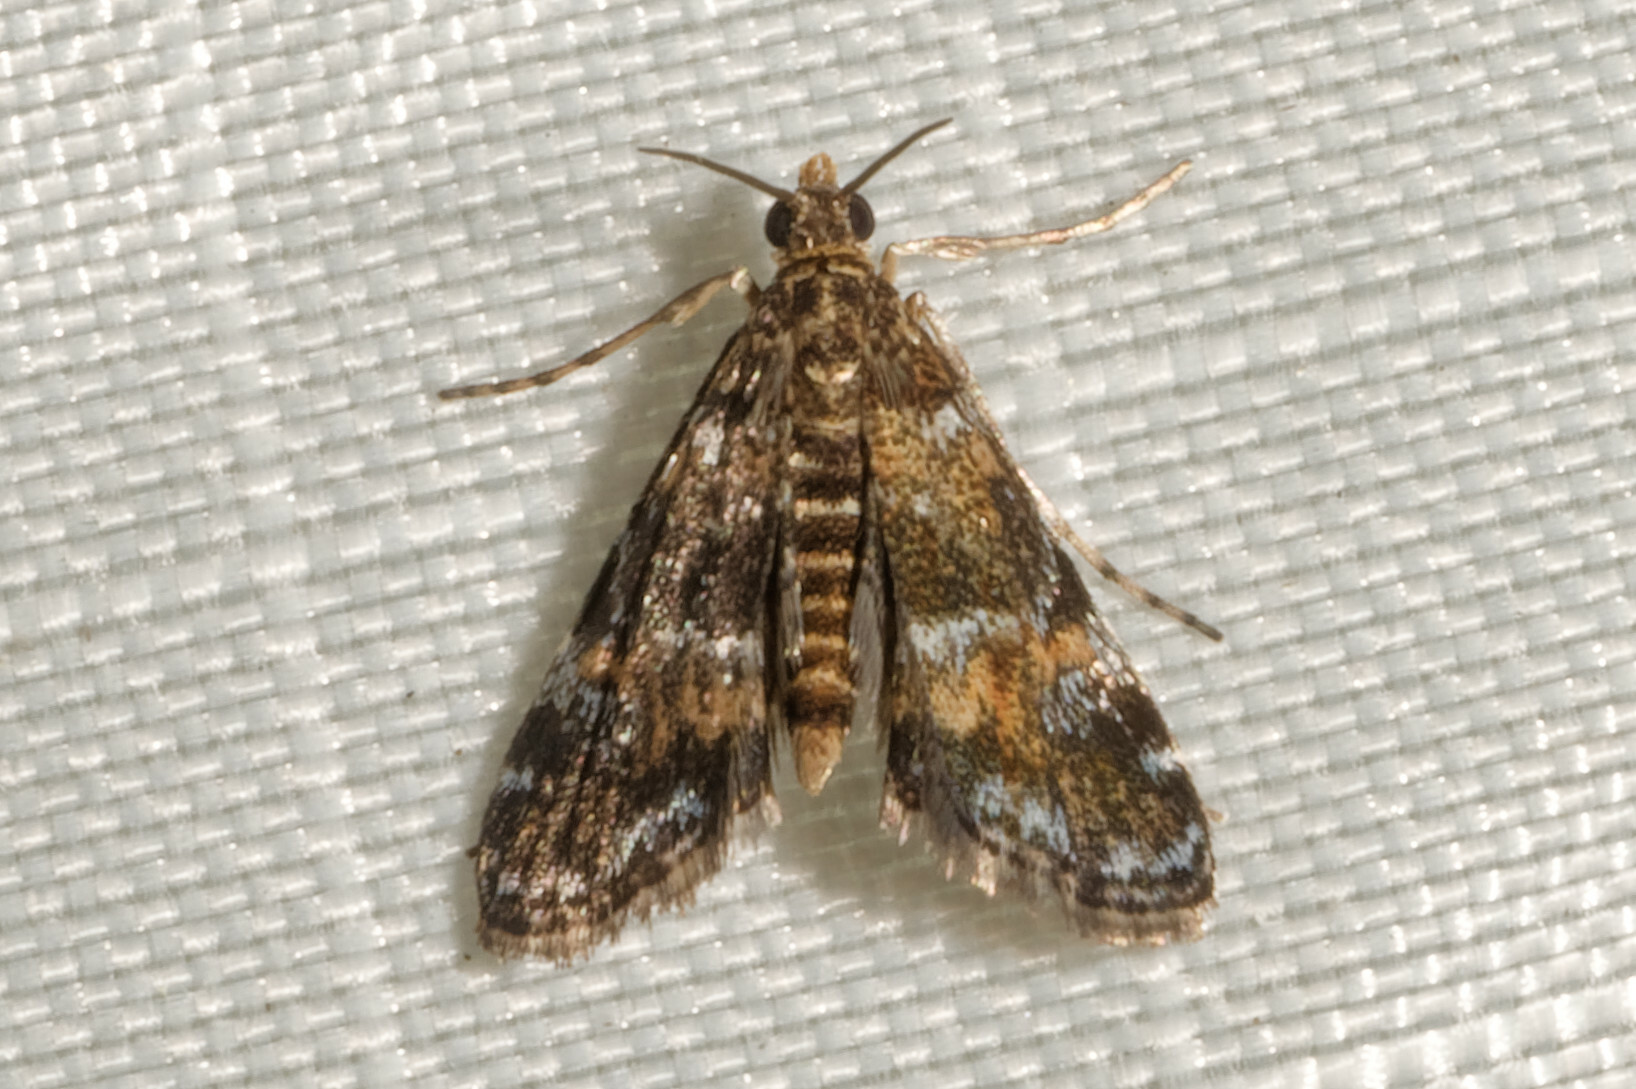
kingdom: Animalia
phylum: Arthropoda
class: Insecta
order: Lepidoptera
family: Crambidae
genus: Elophila
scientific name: Elophila obliteralis
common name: Waterlily leafcutter moth
